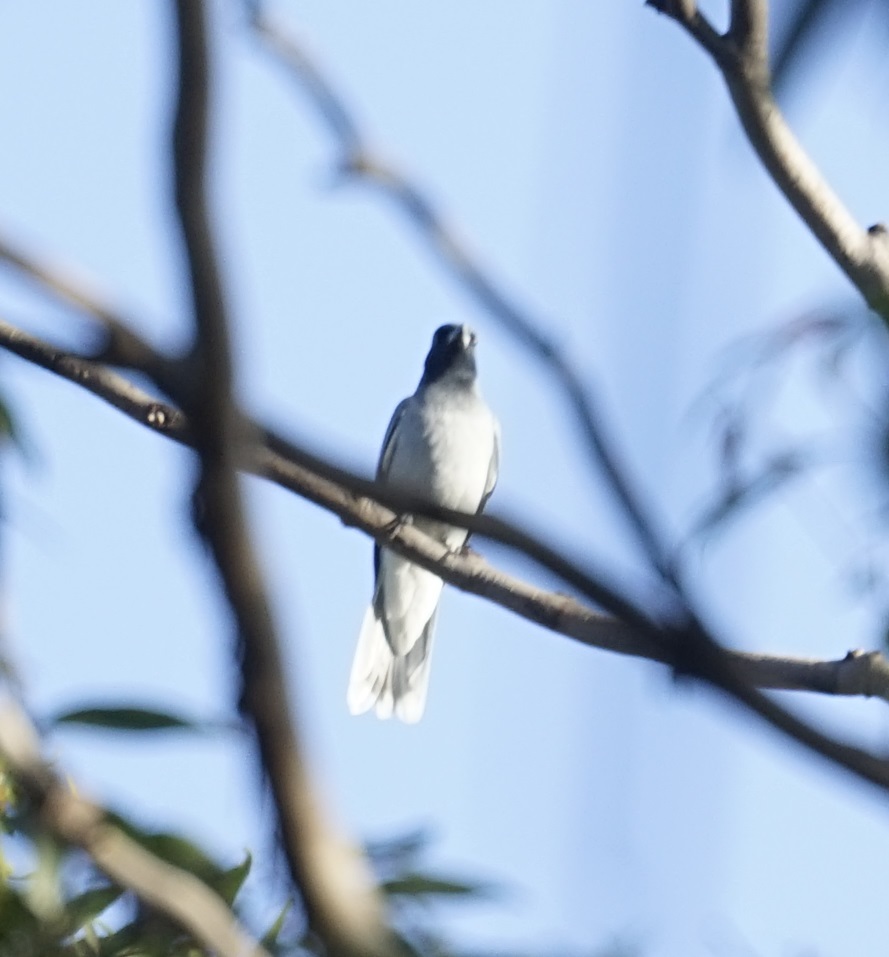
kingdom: Animalia
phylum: Chordata
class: Aves
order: Passeriformes
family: Campephagidae
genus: Coracina
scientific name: Coracina novaehollandiae
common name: Black-faced cuckooshrike
